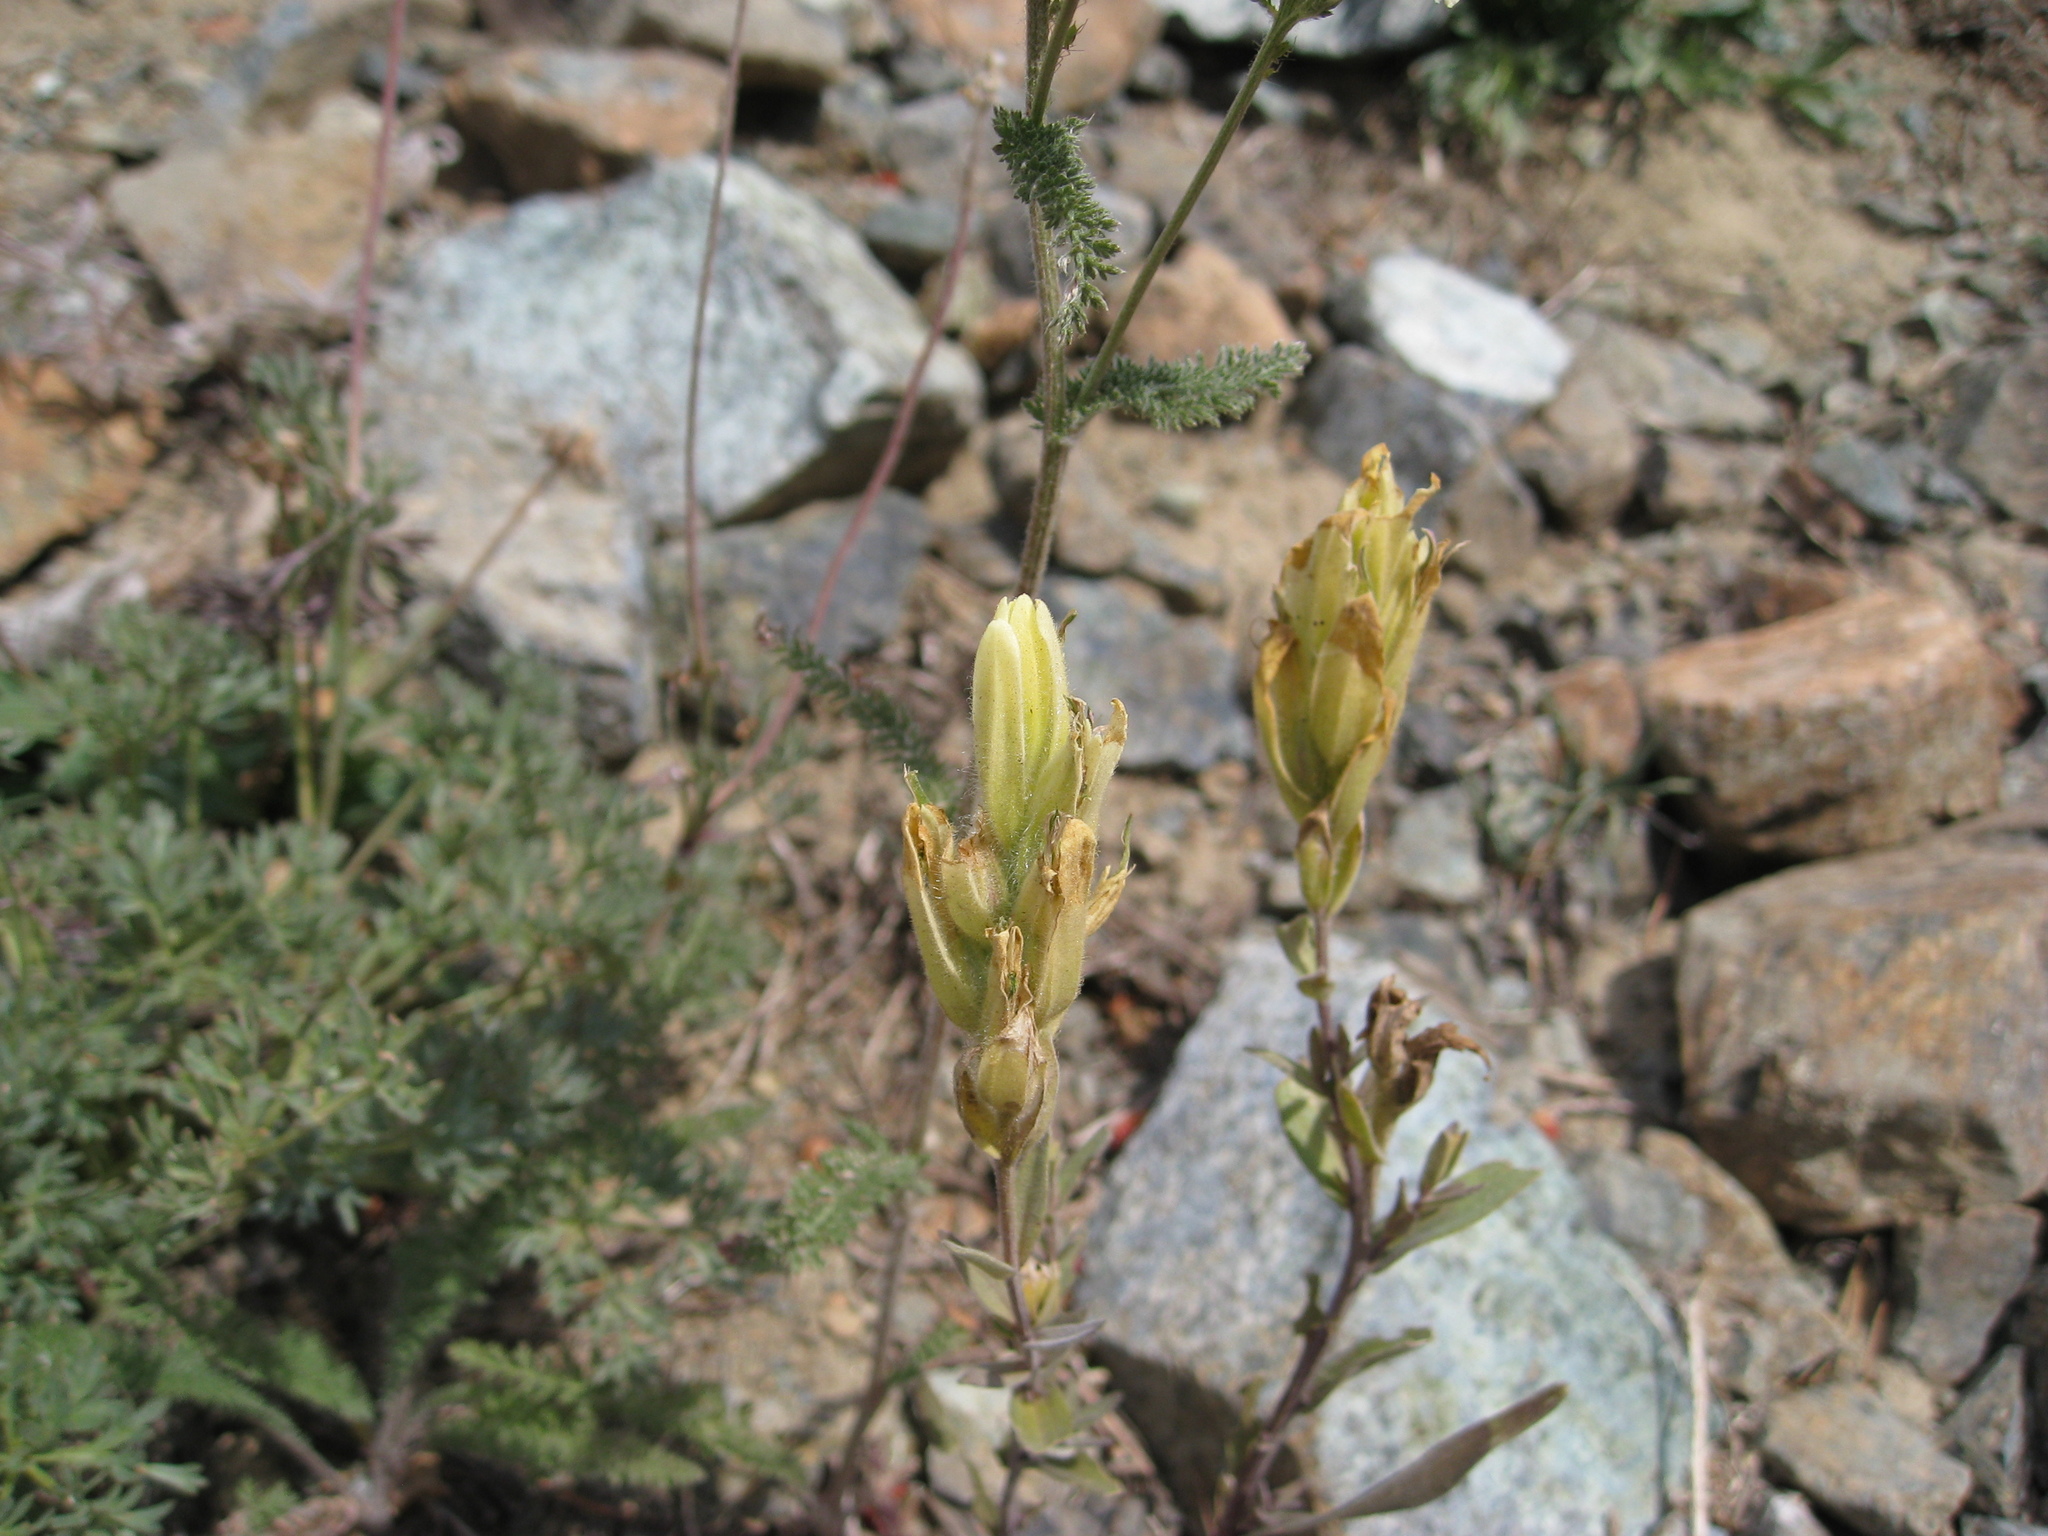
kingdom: Plantae
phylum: Tracheophyta
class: Magnoliopsida
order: Lamiales
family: Orobanchaceae
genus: Castilleja
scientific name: Castilleja elmeri
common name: Elmer's paintbrush
